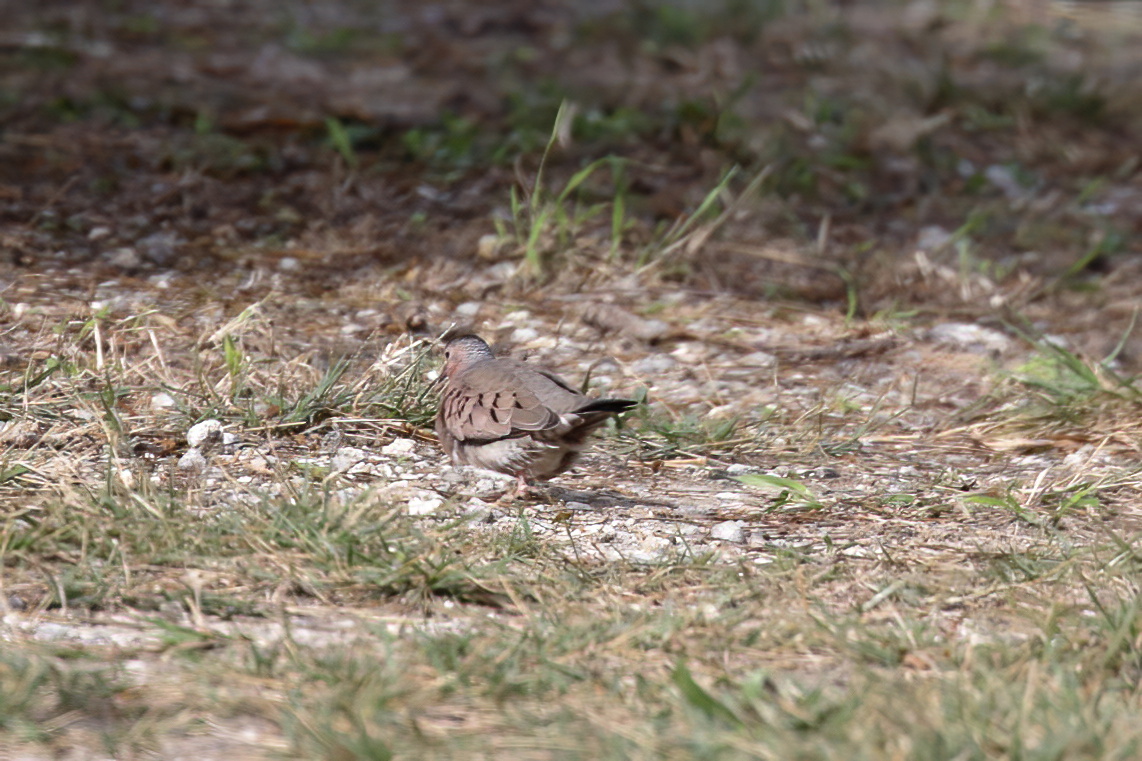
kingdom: Animalia
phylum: Chordata
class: Aves
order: Columbiformes
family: Columbidae
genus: Columbina
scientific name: Columbina passerina
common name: Common ground-dove
